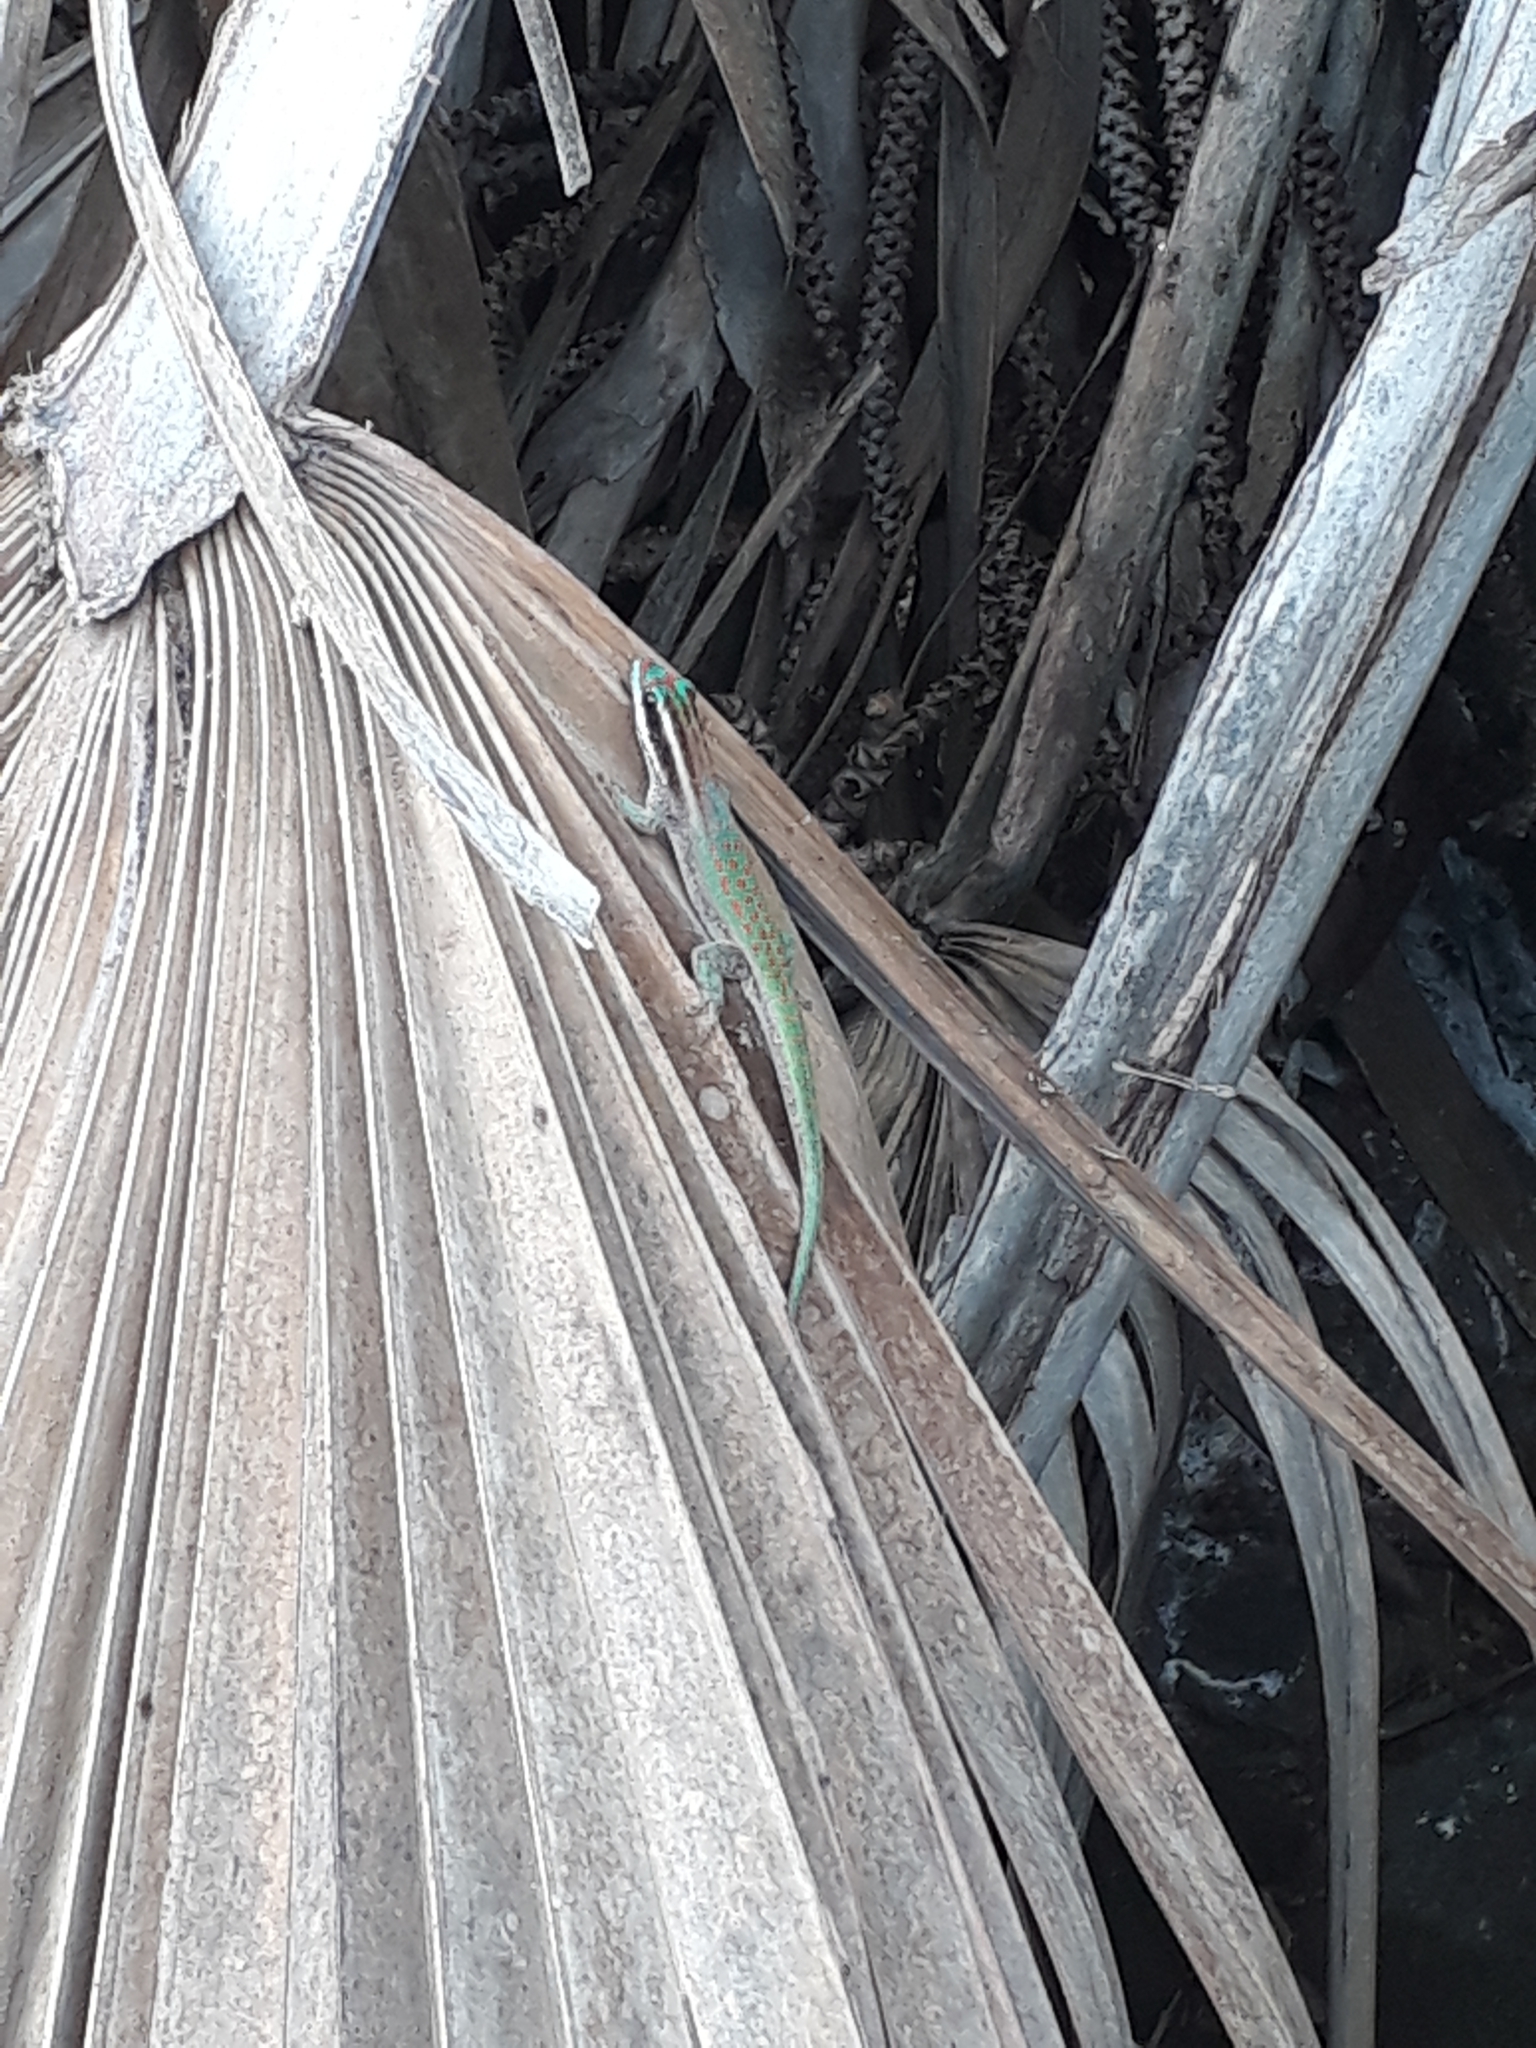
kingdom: Animalia
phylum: Chordata
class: Squamata
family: Gekkonidae
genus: Phelsuma
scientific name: Phelsuma ornata
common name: Ornate day gecko
